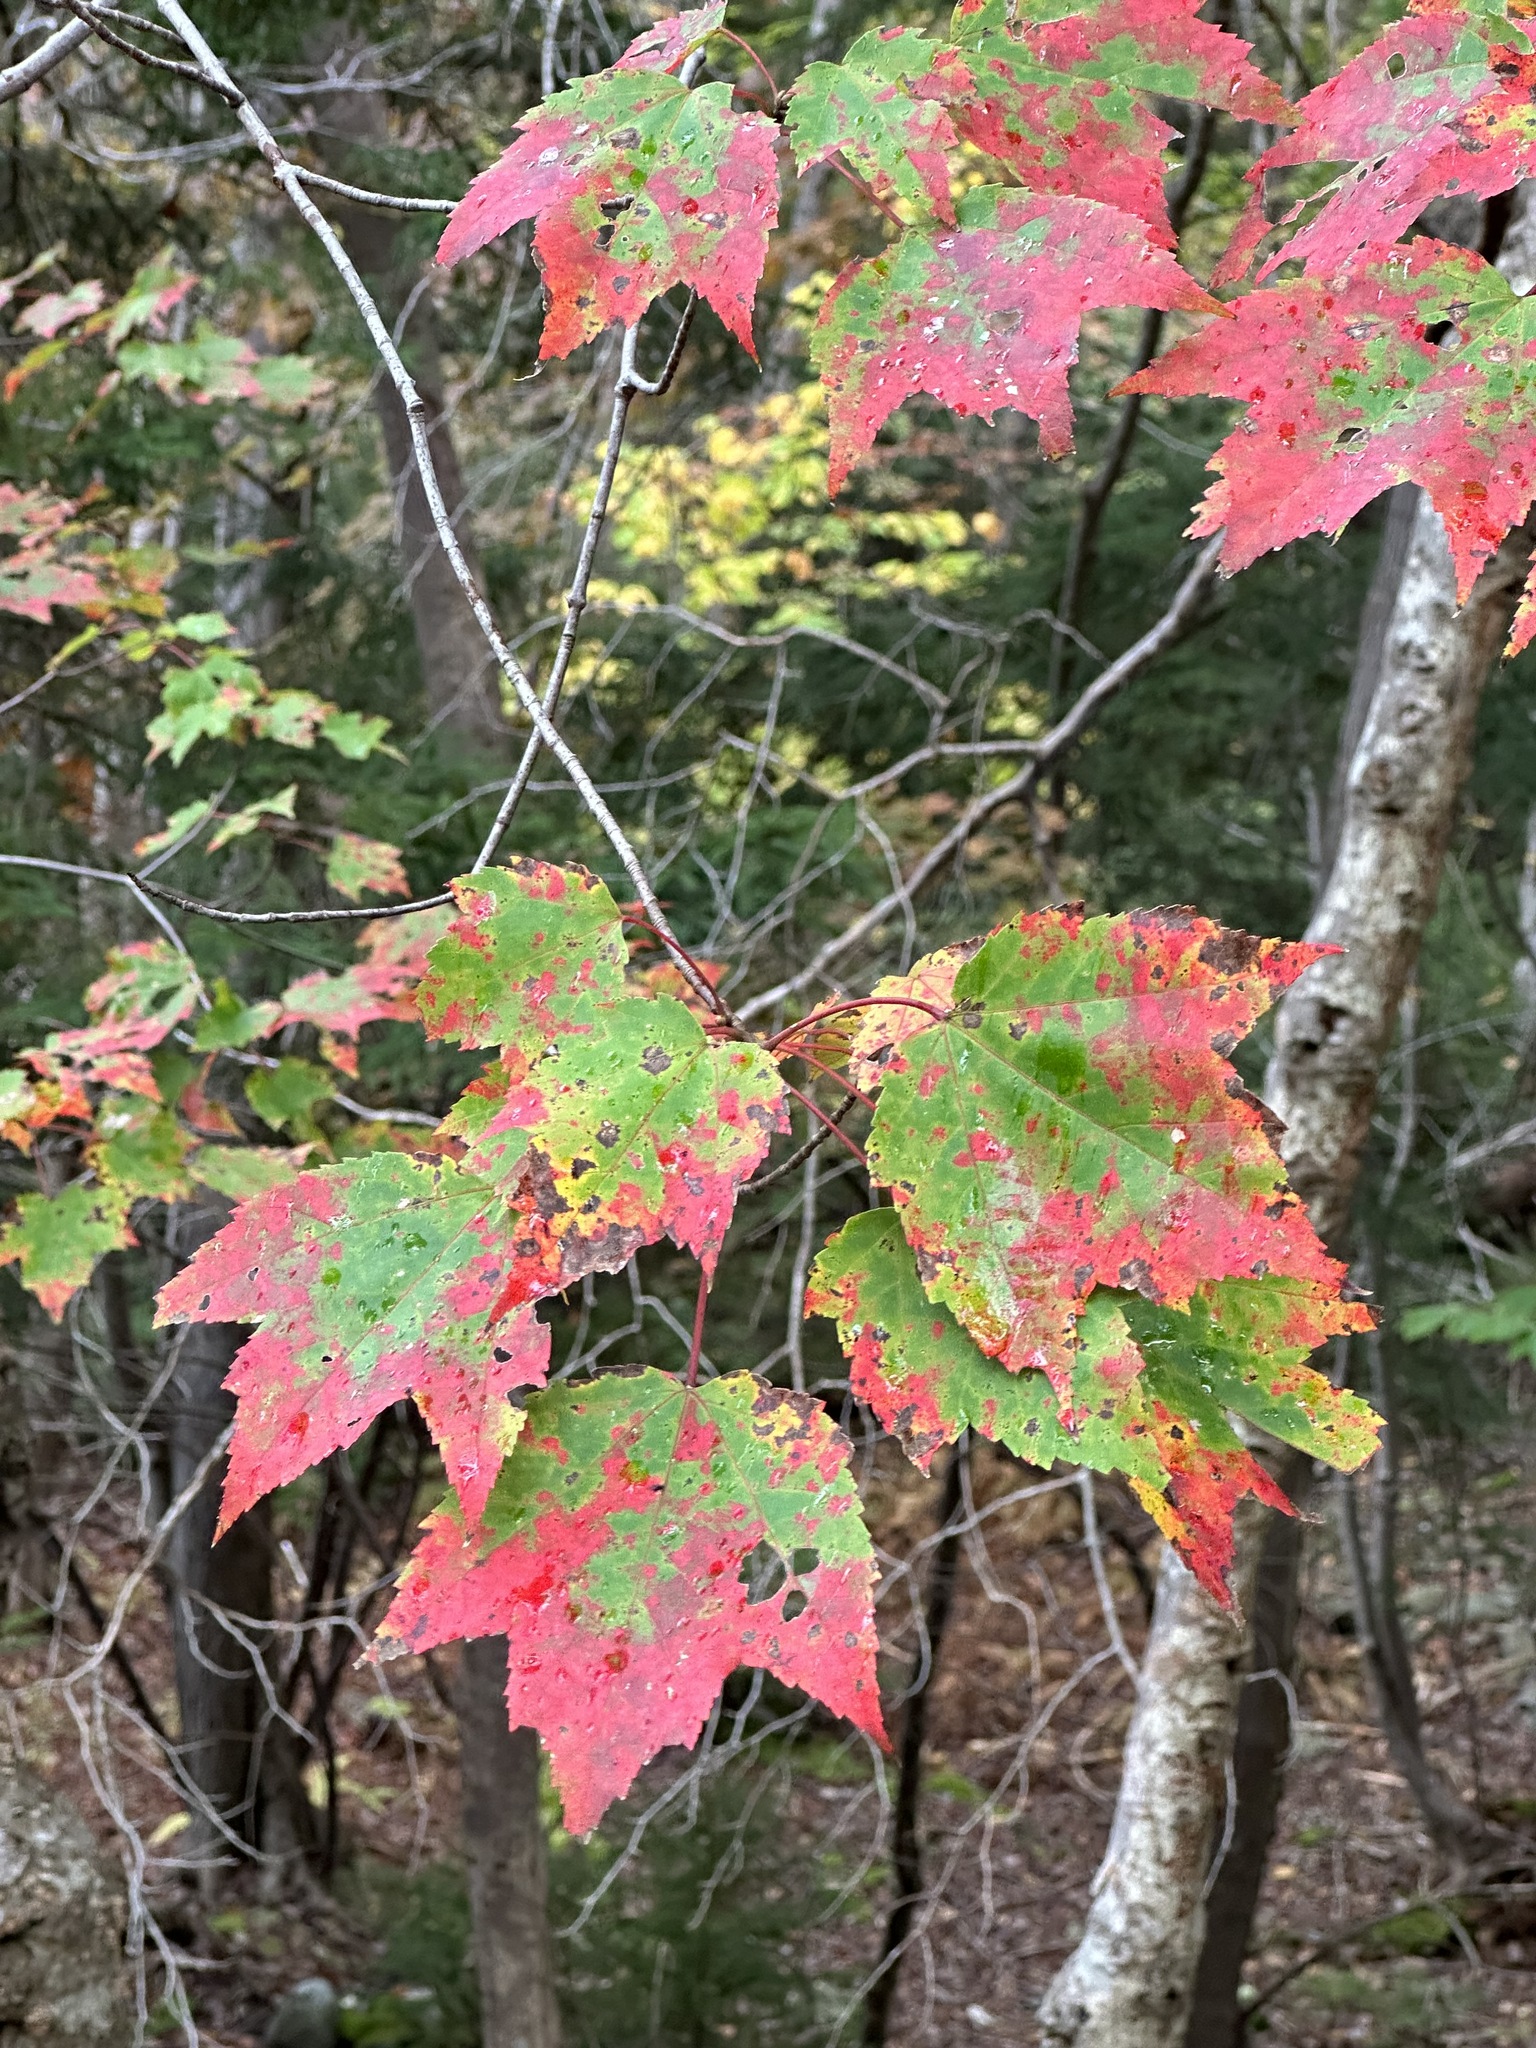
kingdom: Plantae
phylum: Tracheophyta
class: Magnoliopsida
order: Sapindales
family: Sapindaceae
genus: Acer
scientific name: Acer rubrum
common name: Red maple
